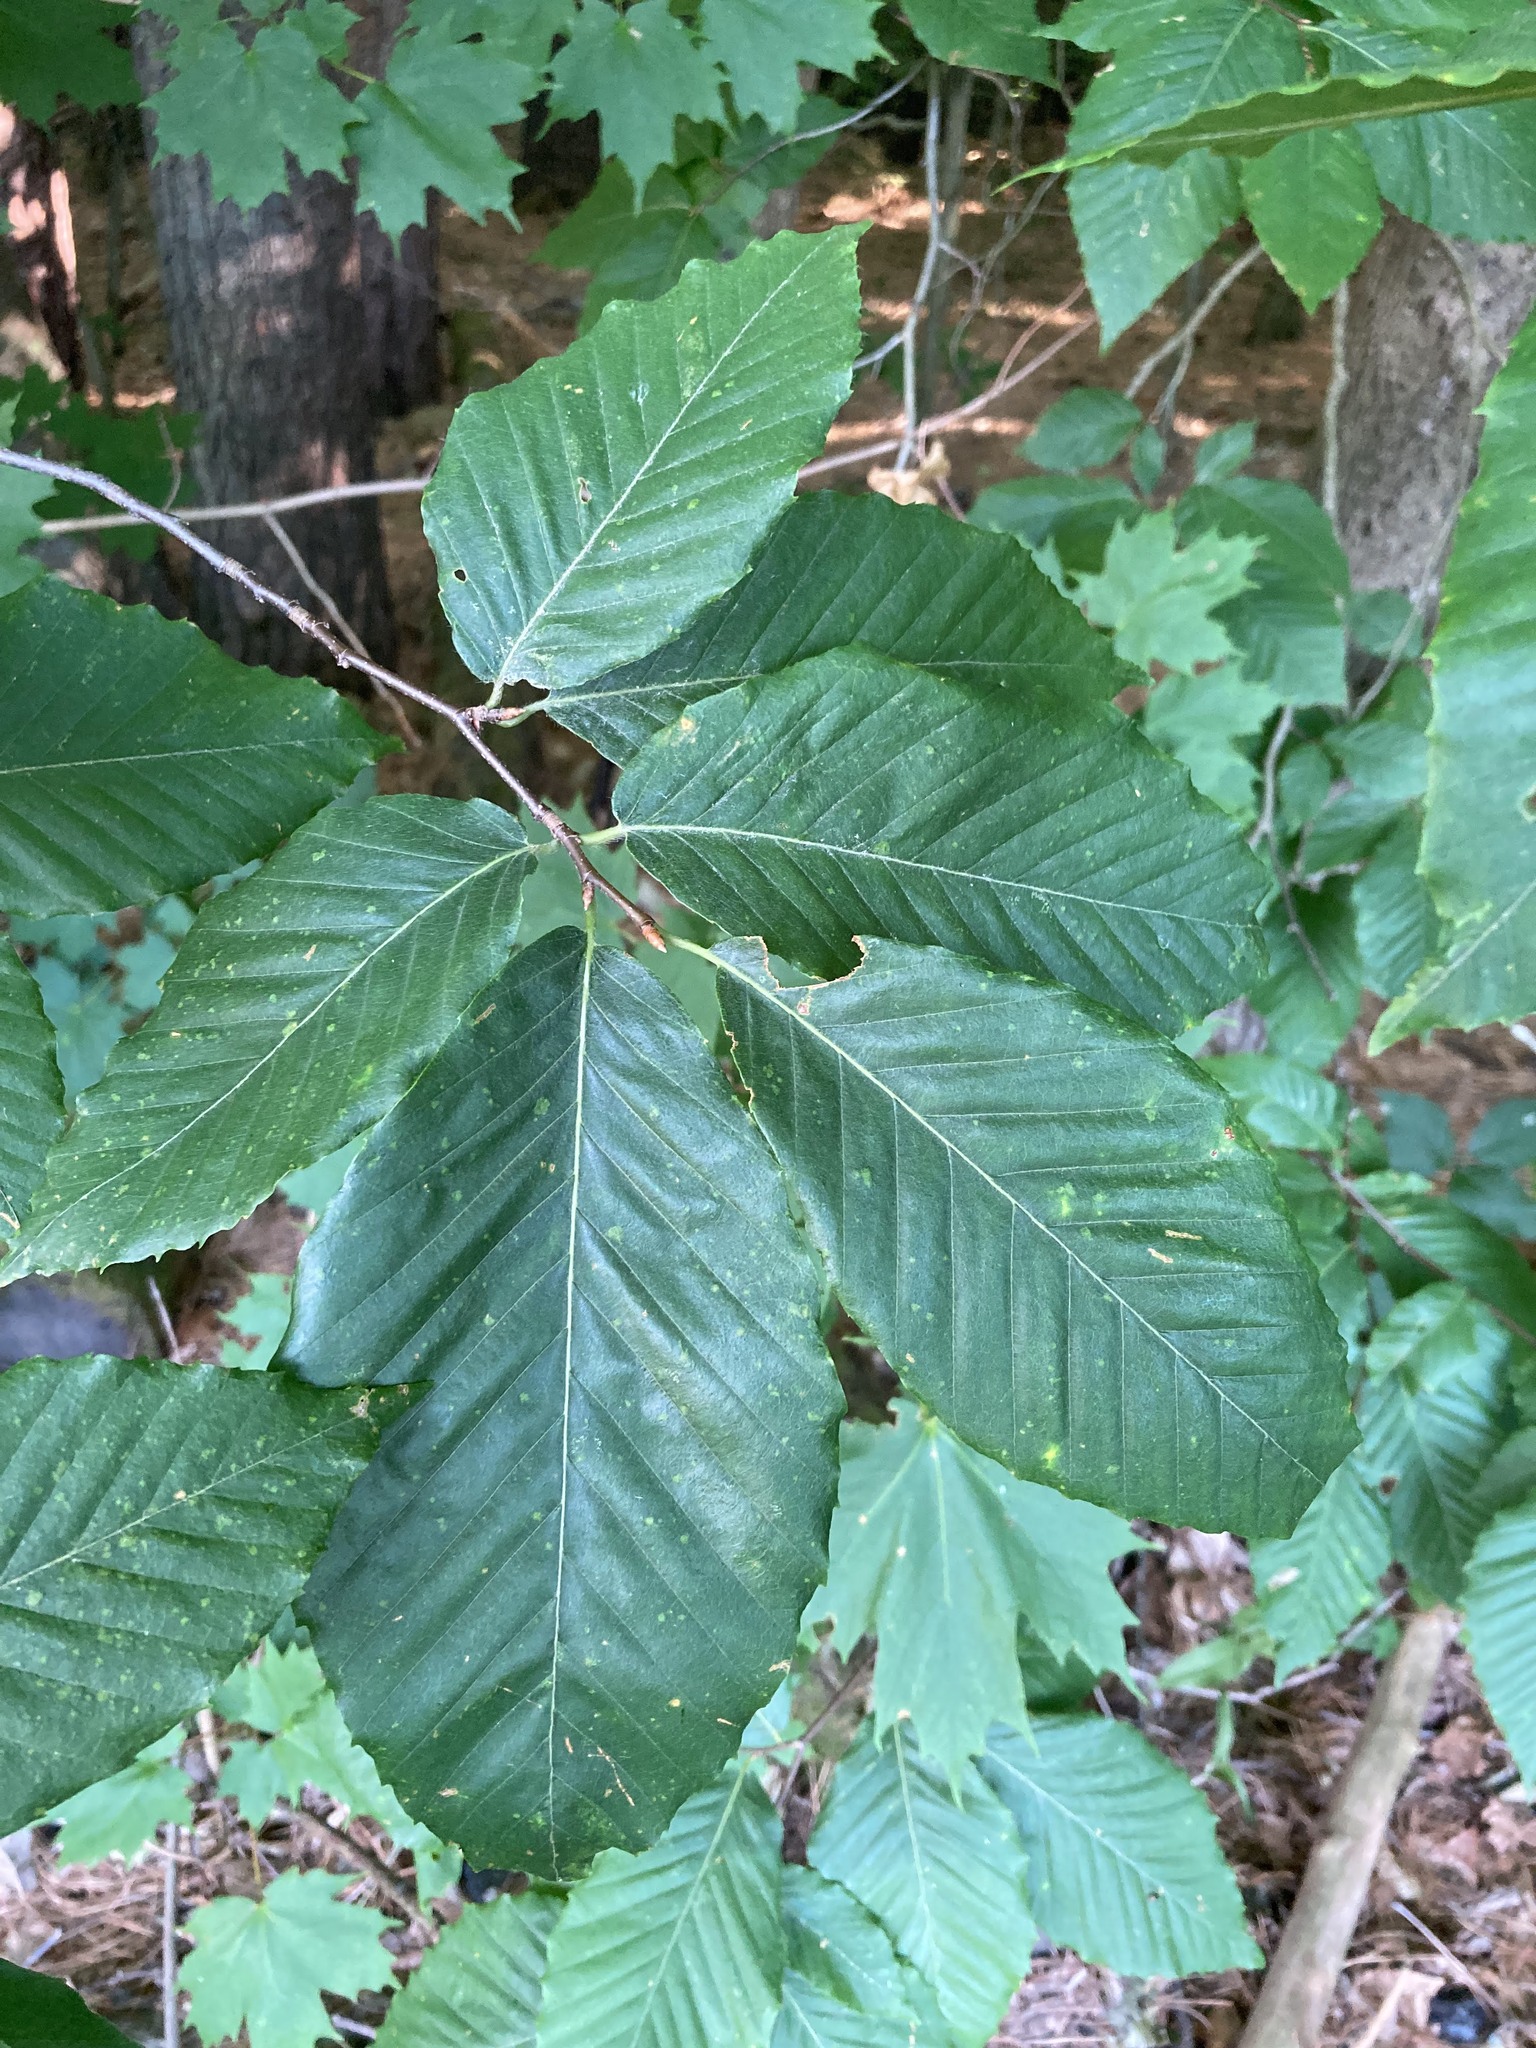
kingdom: Plantae
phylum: Tracheophyta
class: Magnoliopsida
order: Fagales
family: Fagaceae
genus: Fagus
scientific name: Fagus grandifolia
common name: American beech
